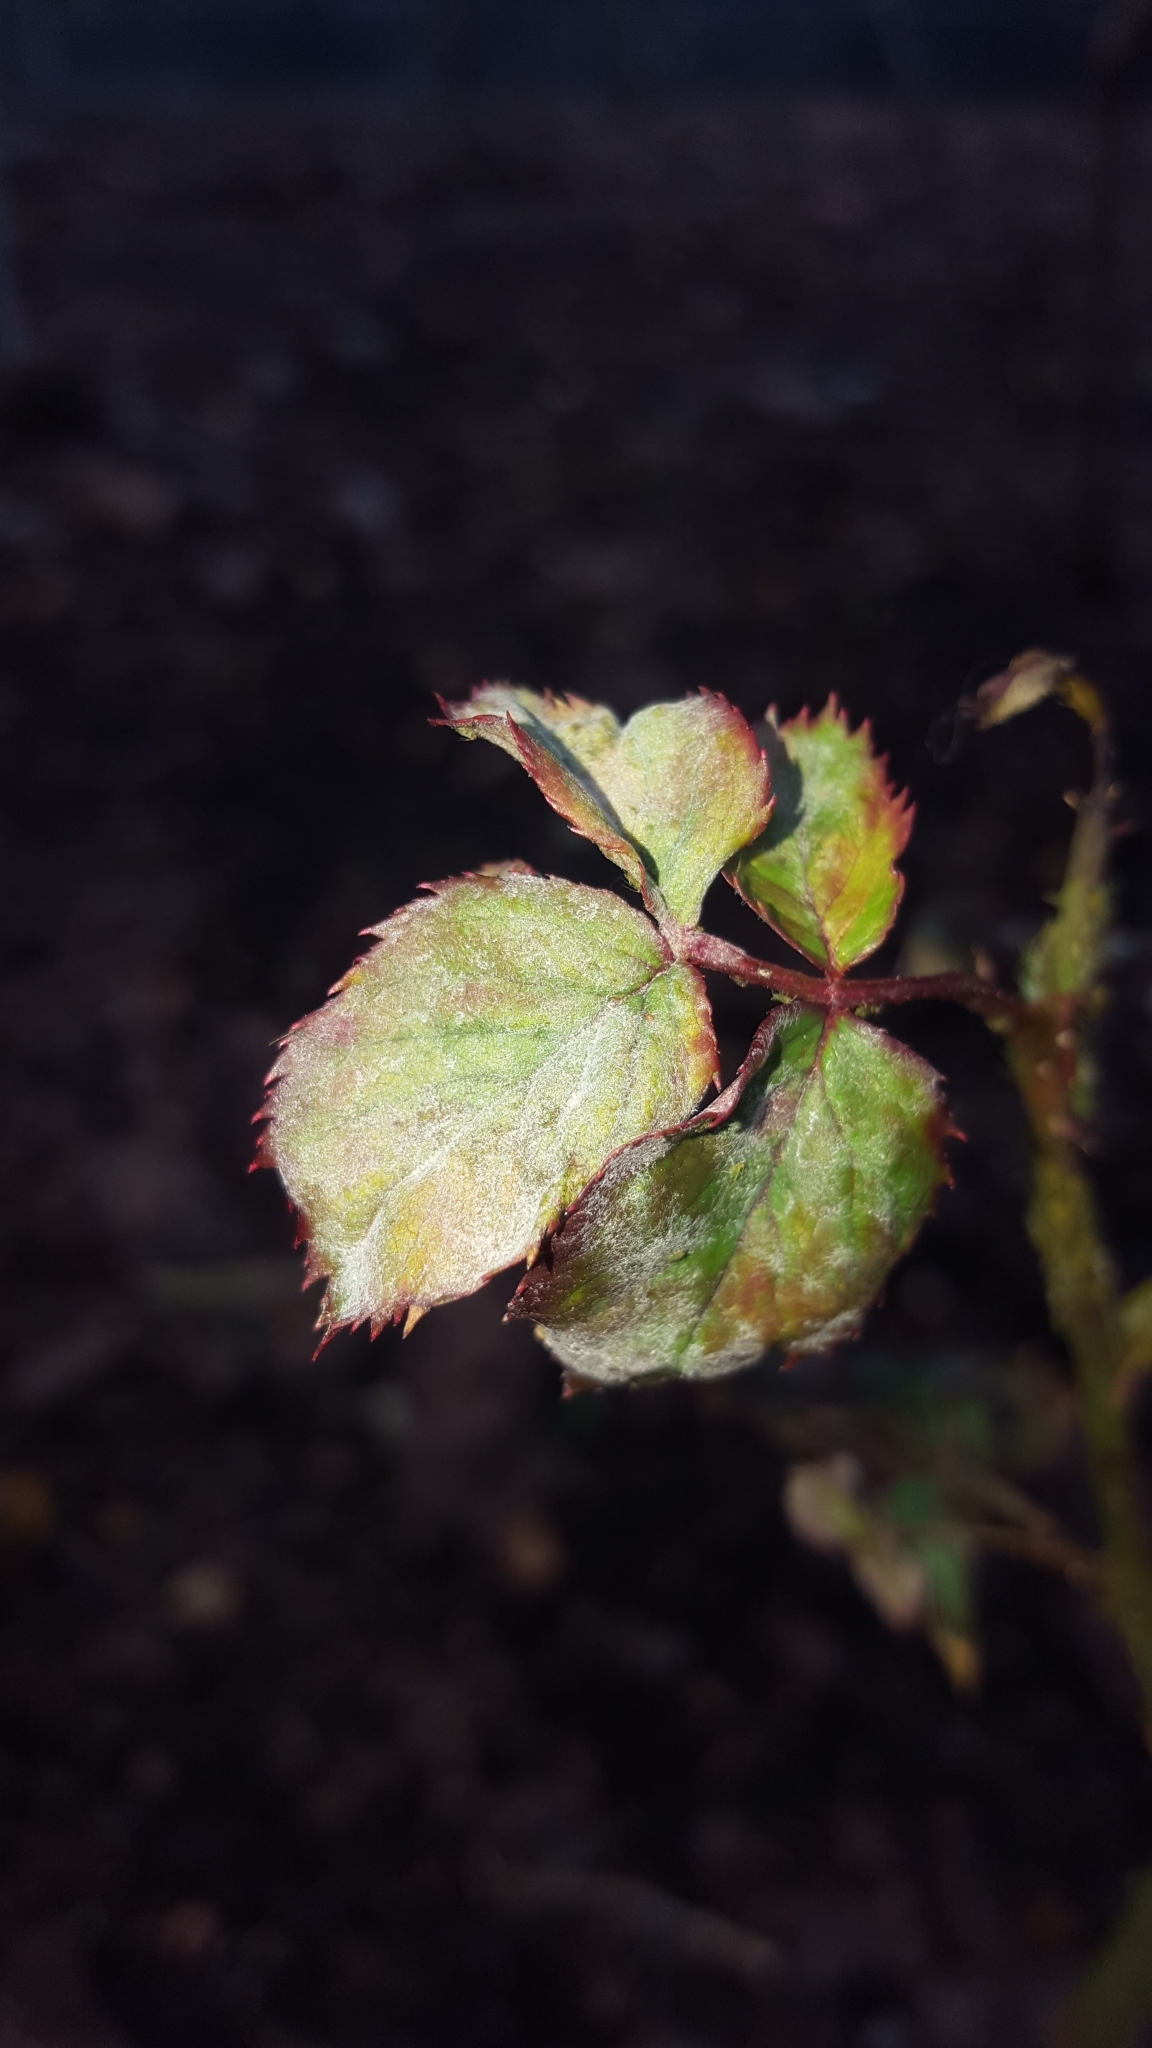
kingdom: Fungi
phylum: Ascomycota
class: Leotiomycetes
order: Helotiales
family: Erysiphaceae
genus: Podosphaera
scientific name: Podosphaera pannosa
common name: Rose mildew
